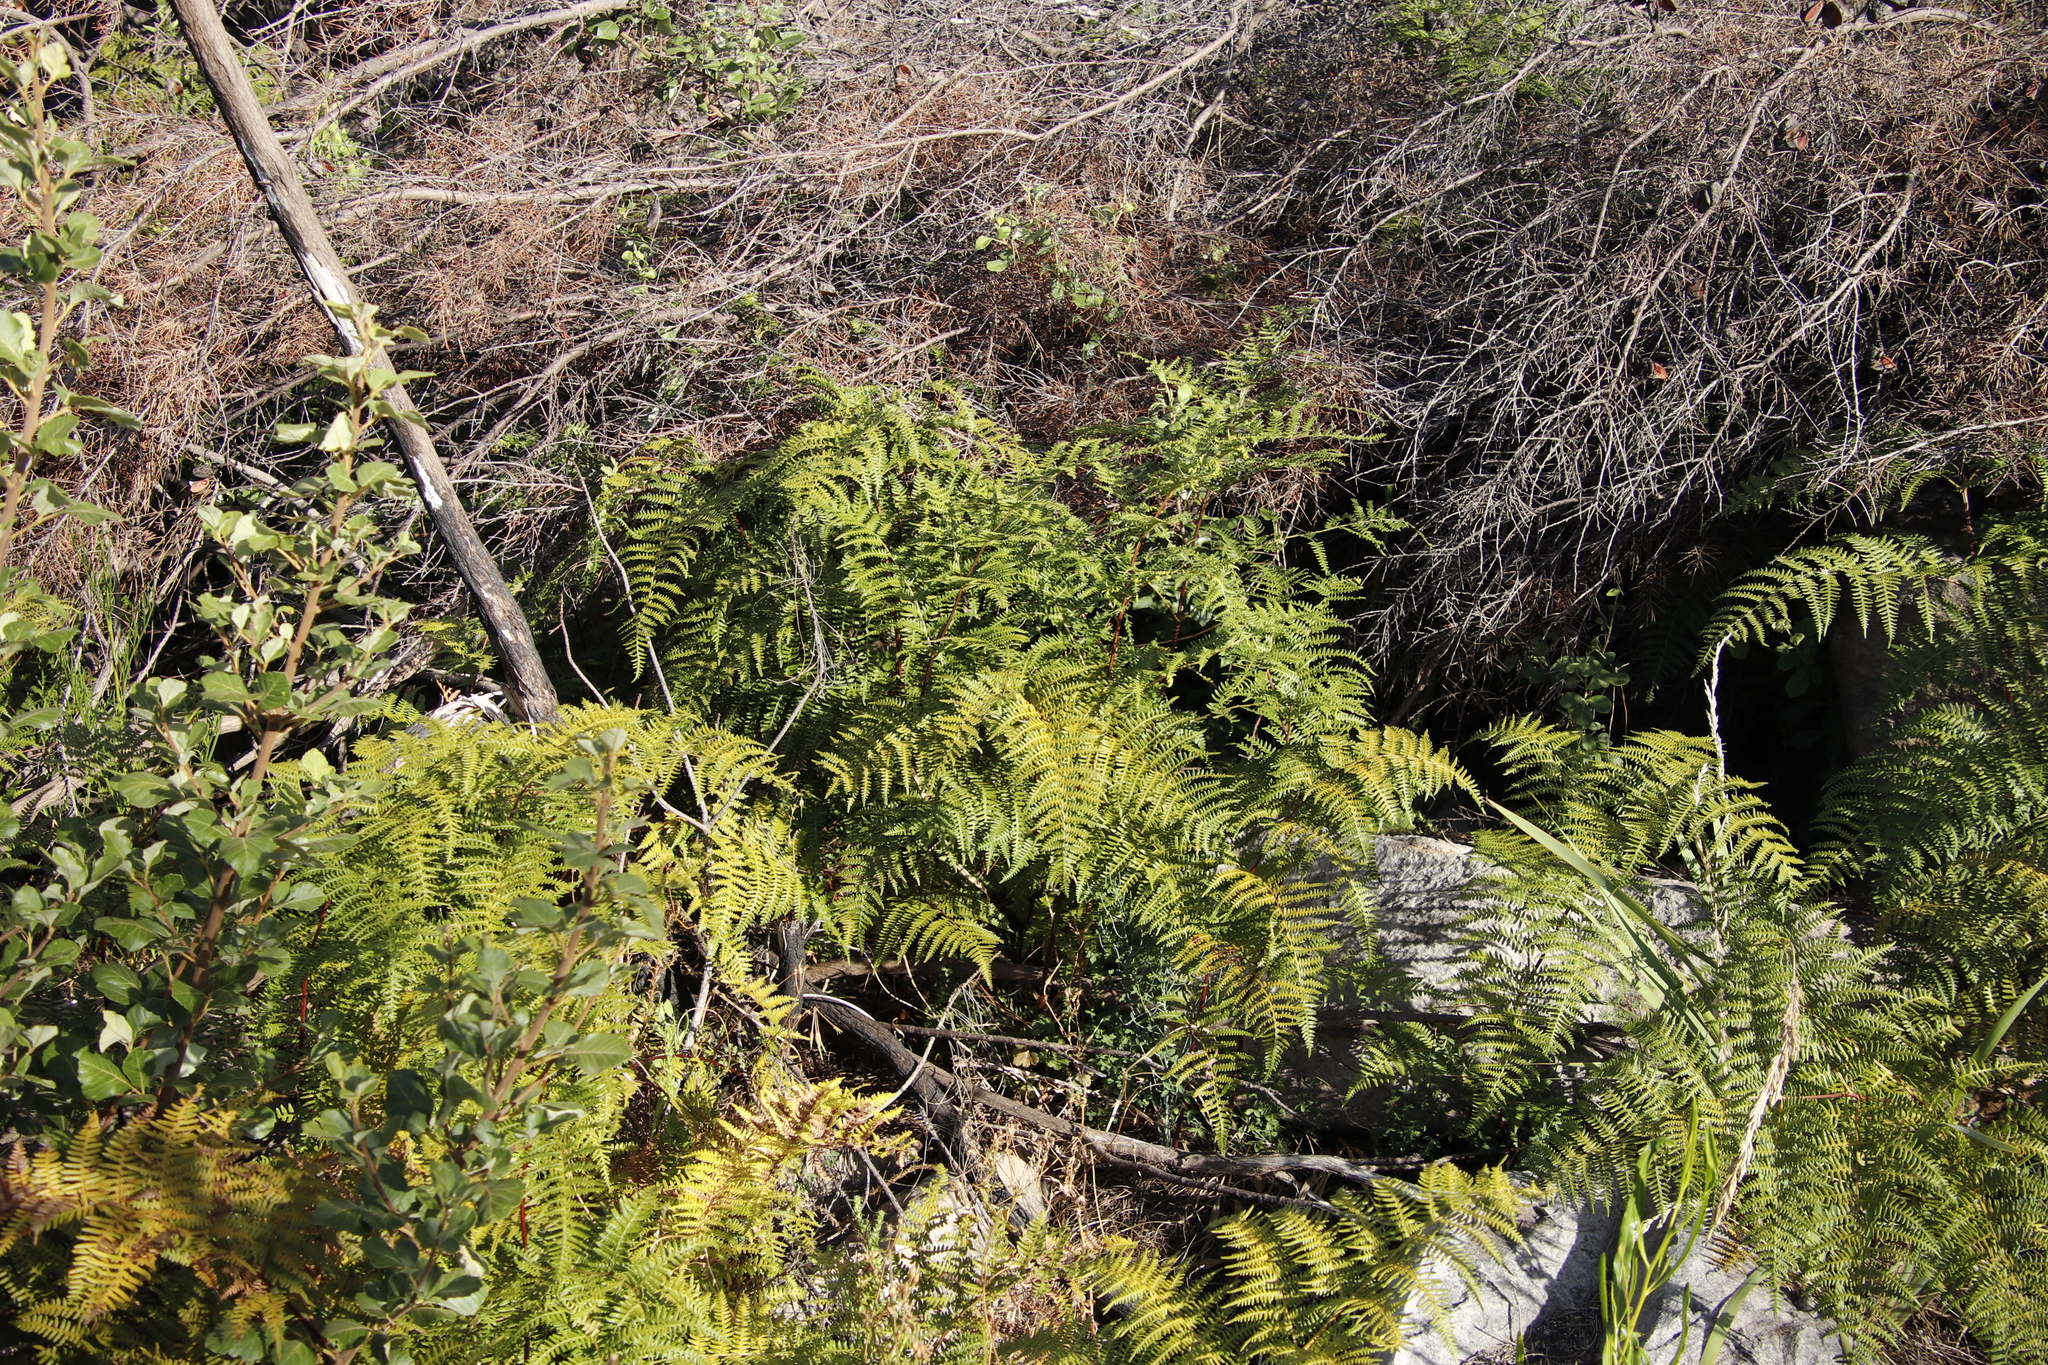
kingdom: Plantae
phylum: Tracheophyta
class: Polypodiopsida
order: Polypodiales
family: Dennstaedtiaceae
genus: Pteridium
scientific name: Pteridium aquilinum
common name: Bracken
